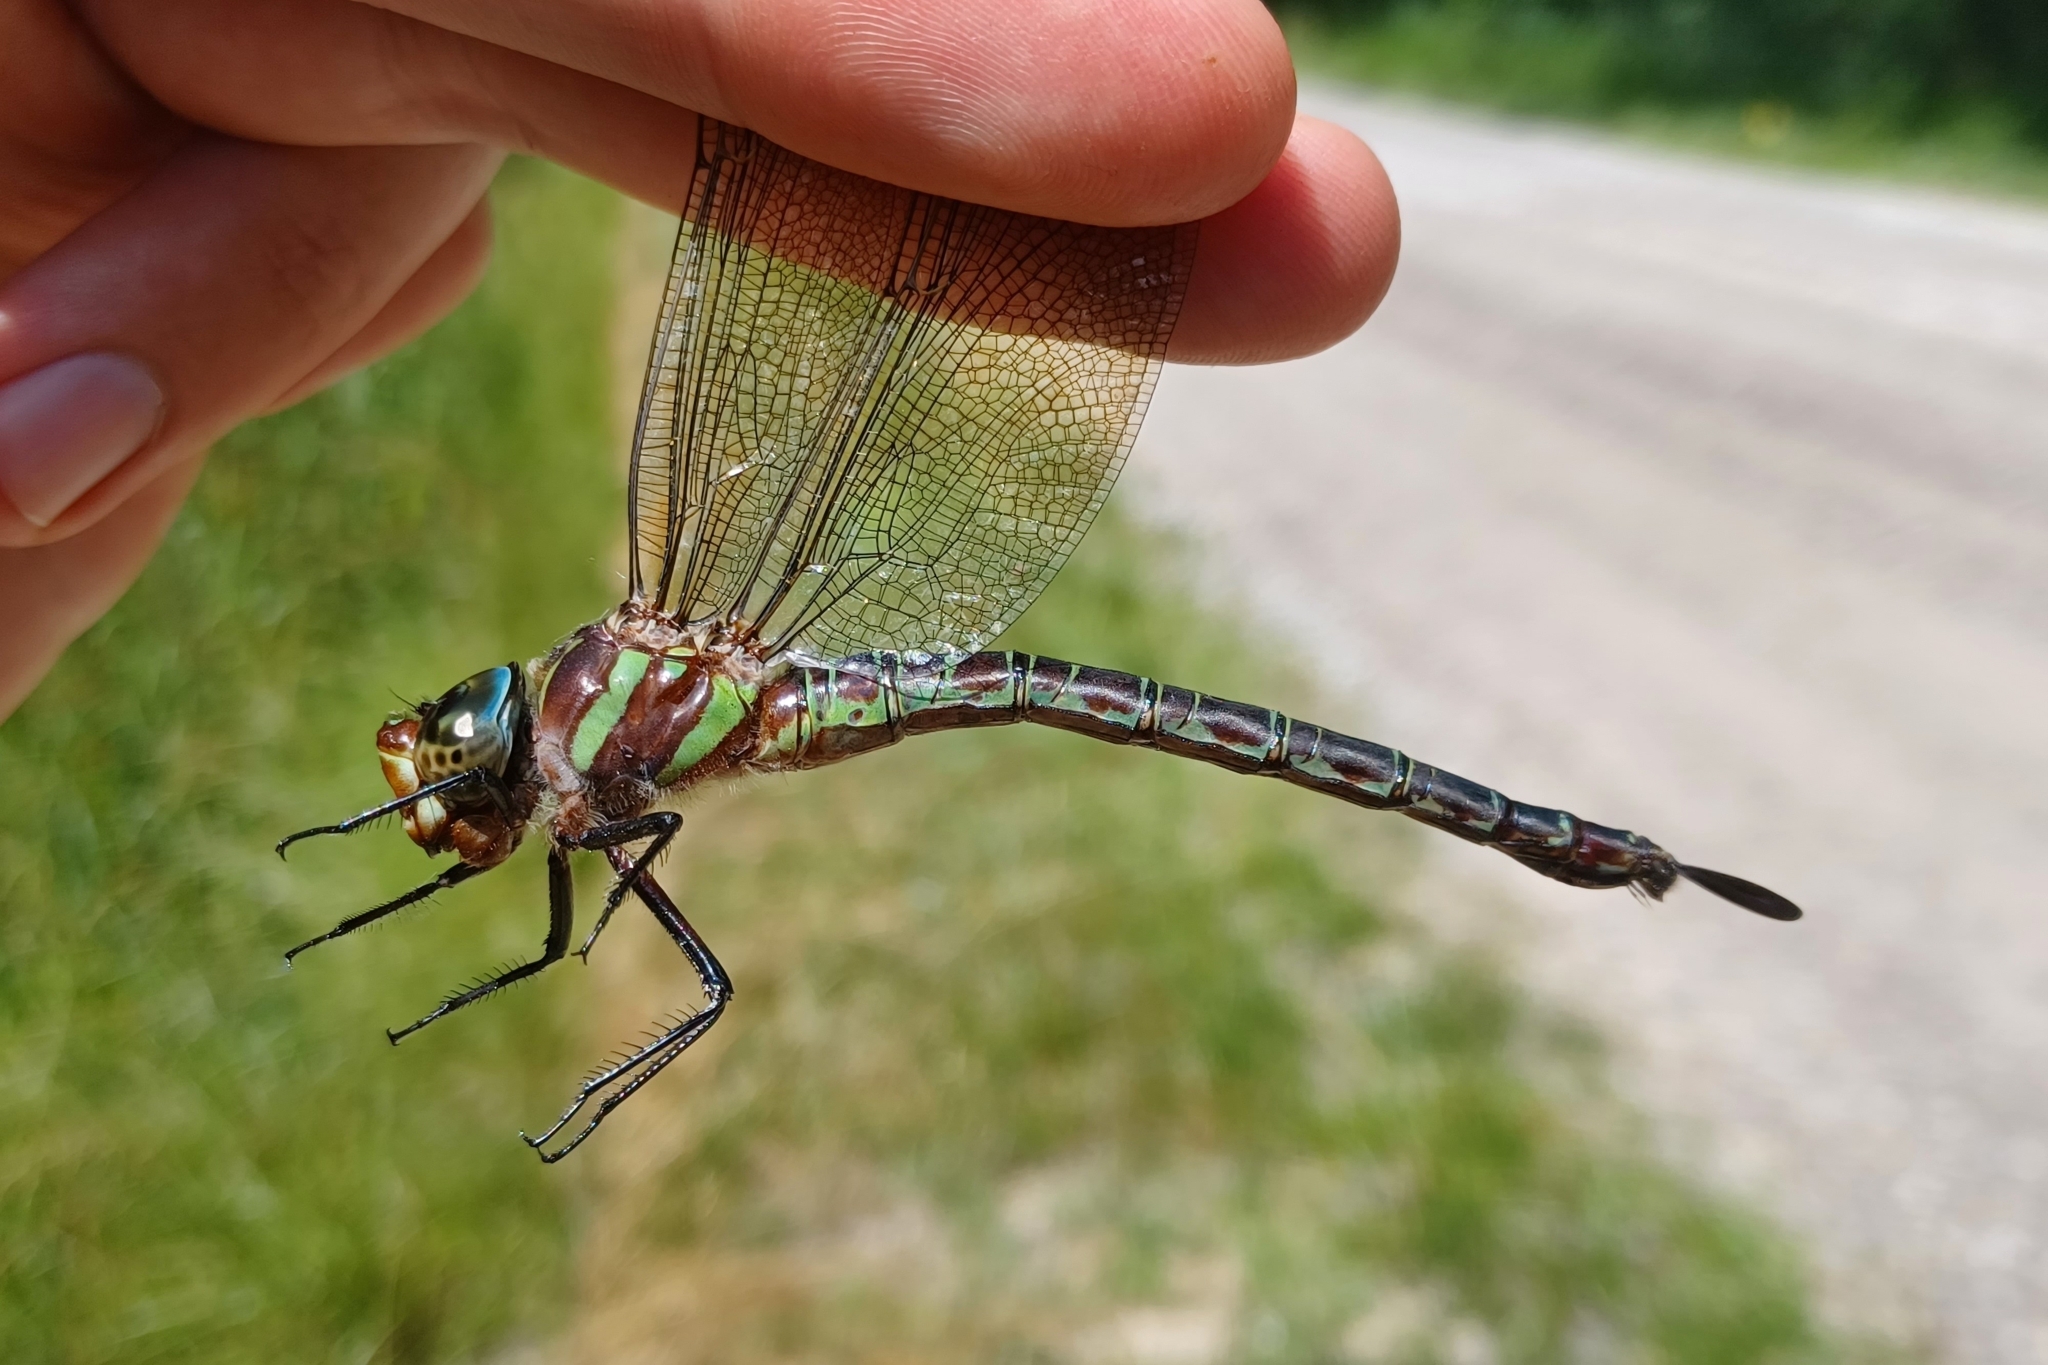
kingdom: Animalia
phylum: Arthropoda
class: Insecta
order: Odonata
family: Aeshnidae
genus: Epiaeschna
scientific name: Epiaeschna heros
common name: Swamp darner
